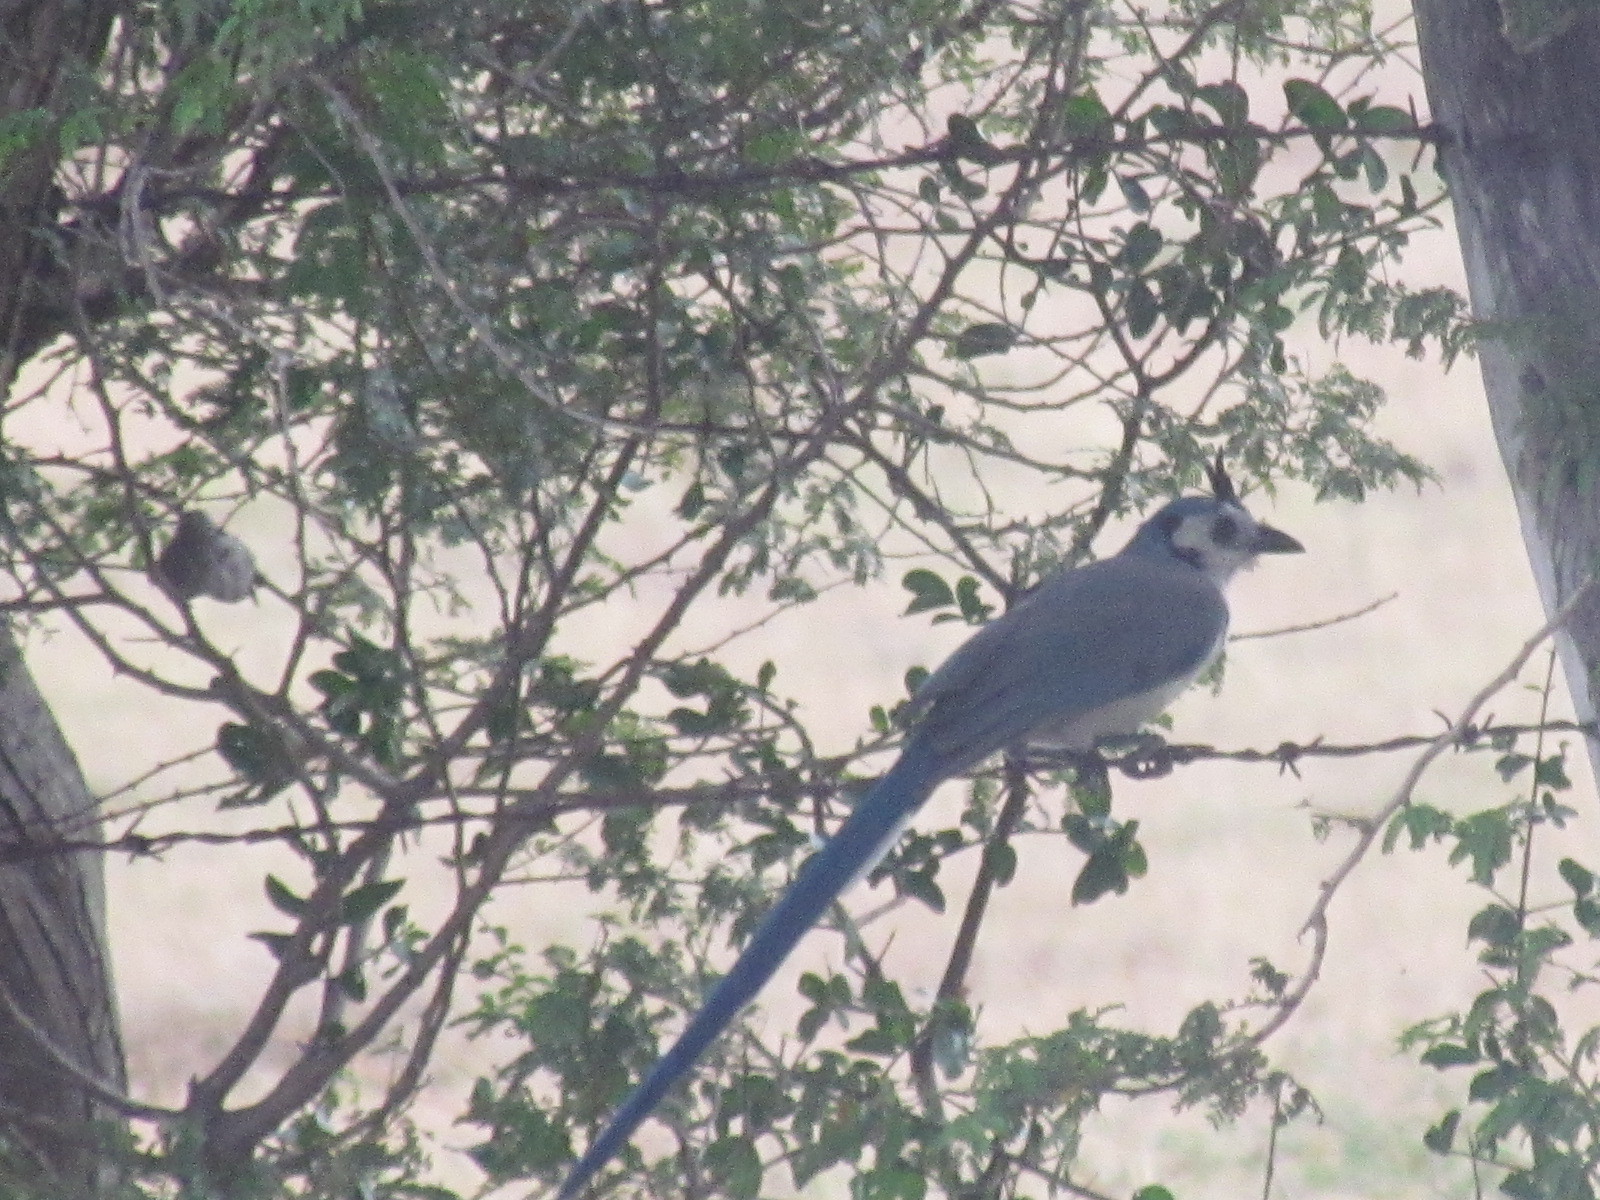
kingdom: Animalia
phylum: Chordata
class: Aves
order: Passeriformes
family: Corvidae
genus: Calocitta
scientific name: Calocitta formosa
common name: White-throated magpie-jay
